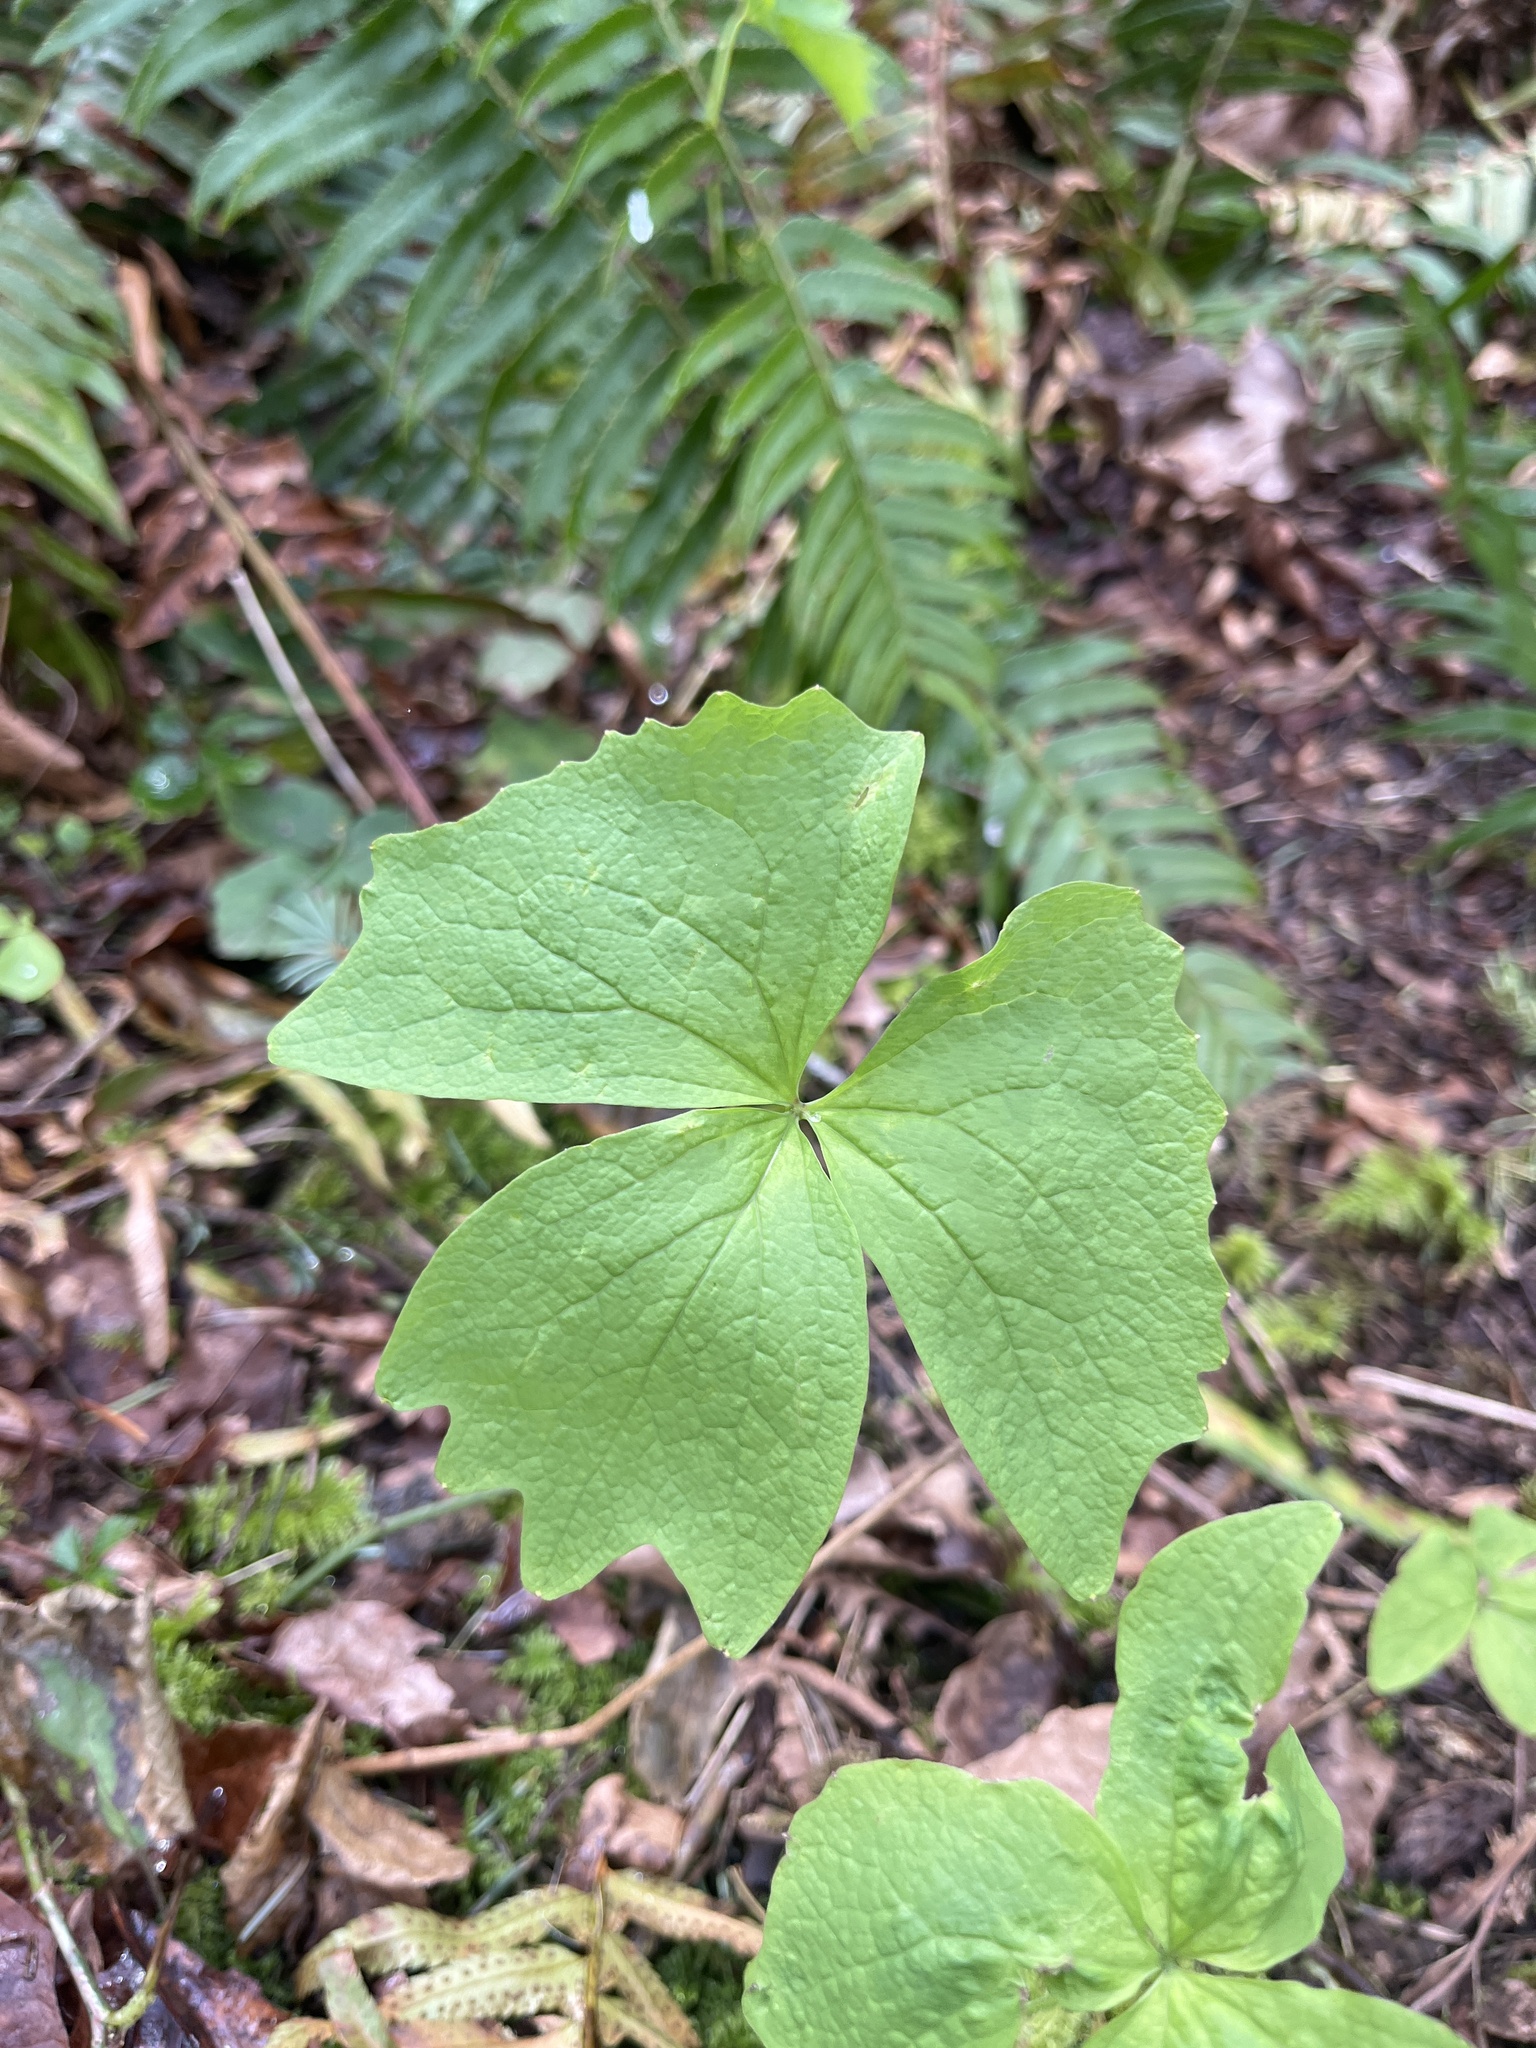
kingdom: Plantae
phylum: Tracheophyta
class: Magnoliopsida
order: Ranunculales
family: Berberidaceae
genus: Achlys
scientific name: Achlys triphylla
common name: Vanilla-leaf
